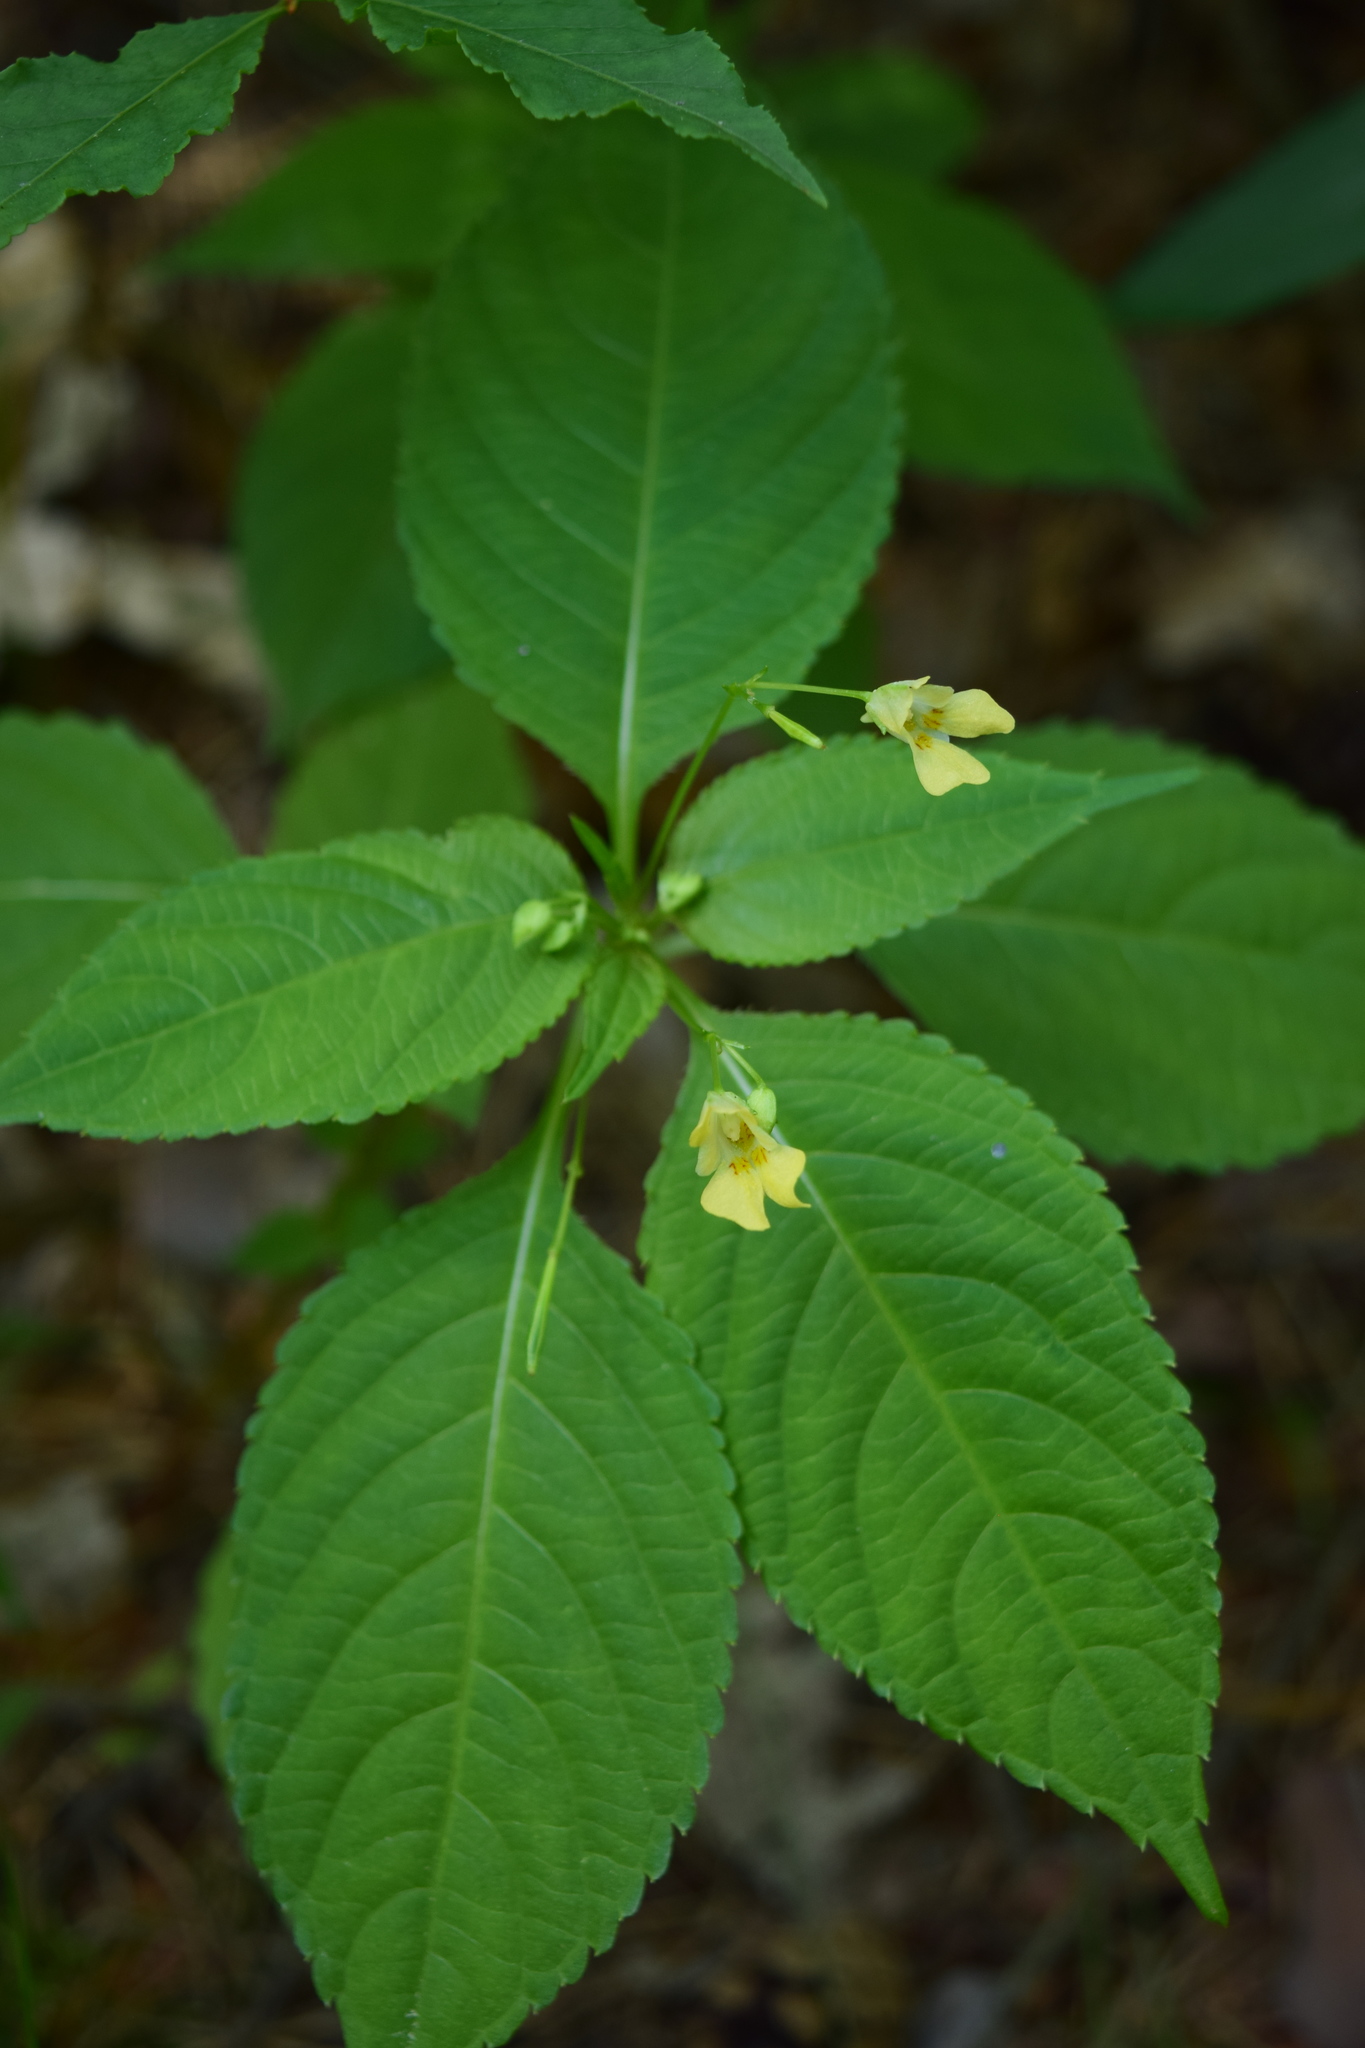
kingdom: Plantae
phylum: Tracheophyta
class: Magnoliopsida
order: Ericales
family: Balsaminaceae
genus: Impatiens
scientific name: Impatiens parviflora
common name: Small balsam
